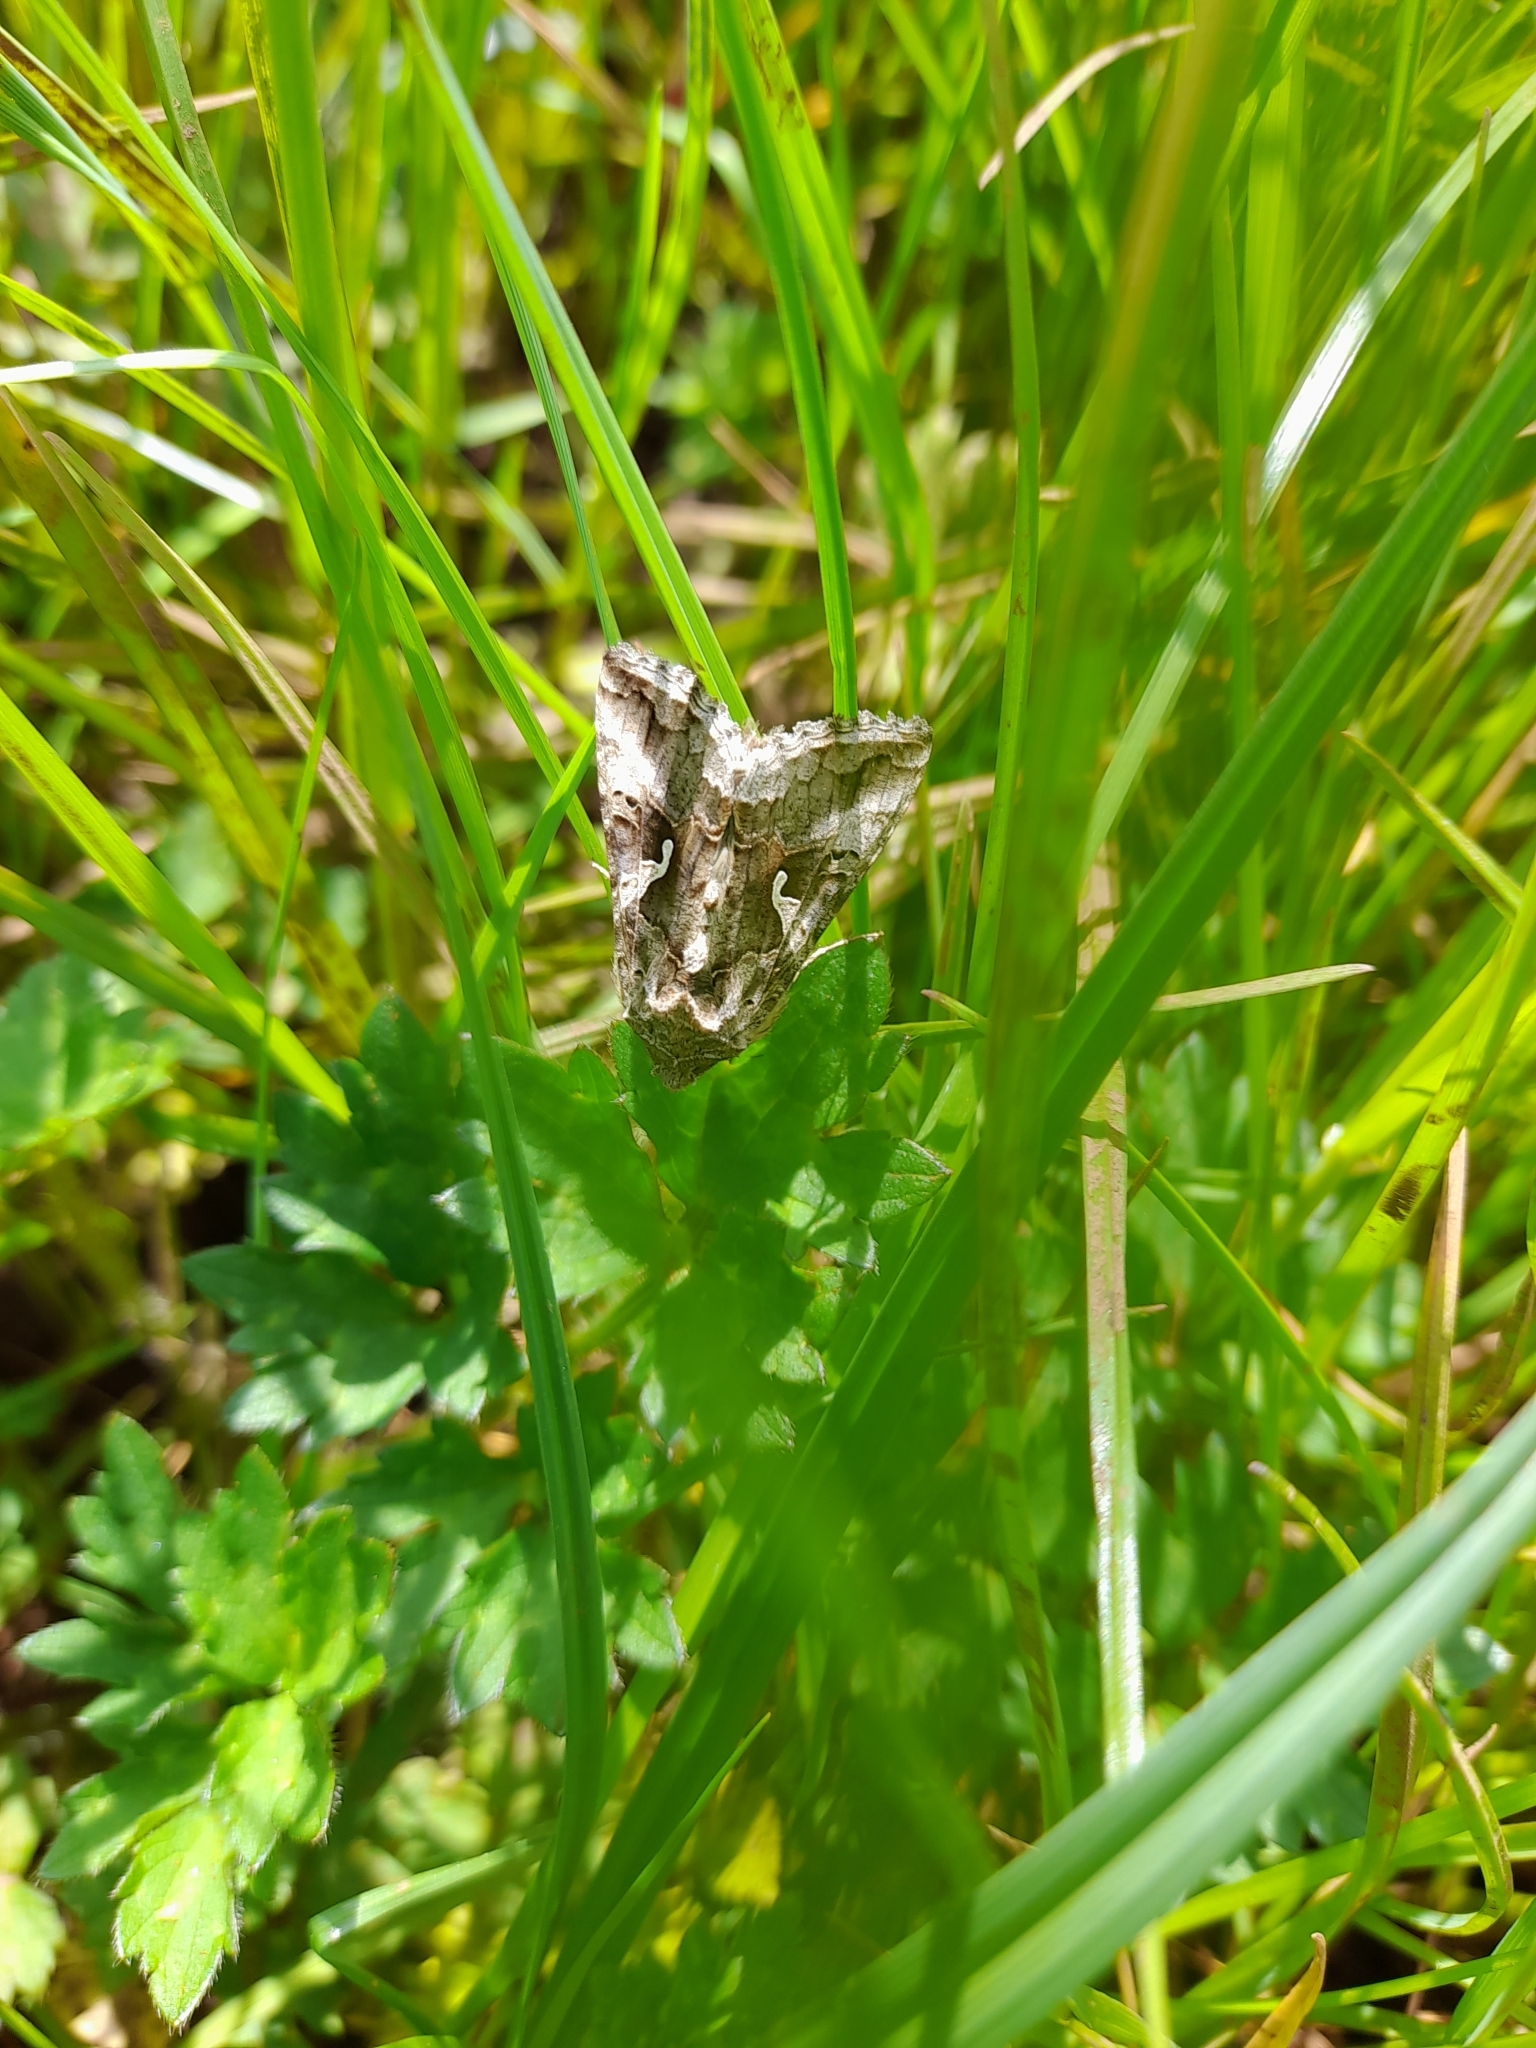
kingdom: Animalia
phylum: Arthropoda
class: Insecta
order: Lepidoptera
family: Noctuidae
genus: Autographa
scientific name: Autographa gamma
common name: Silver y
